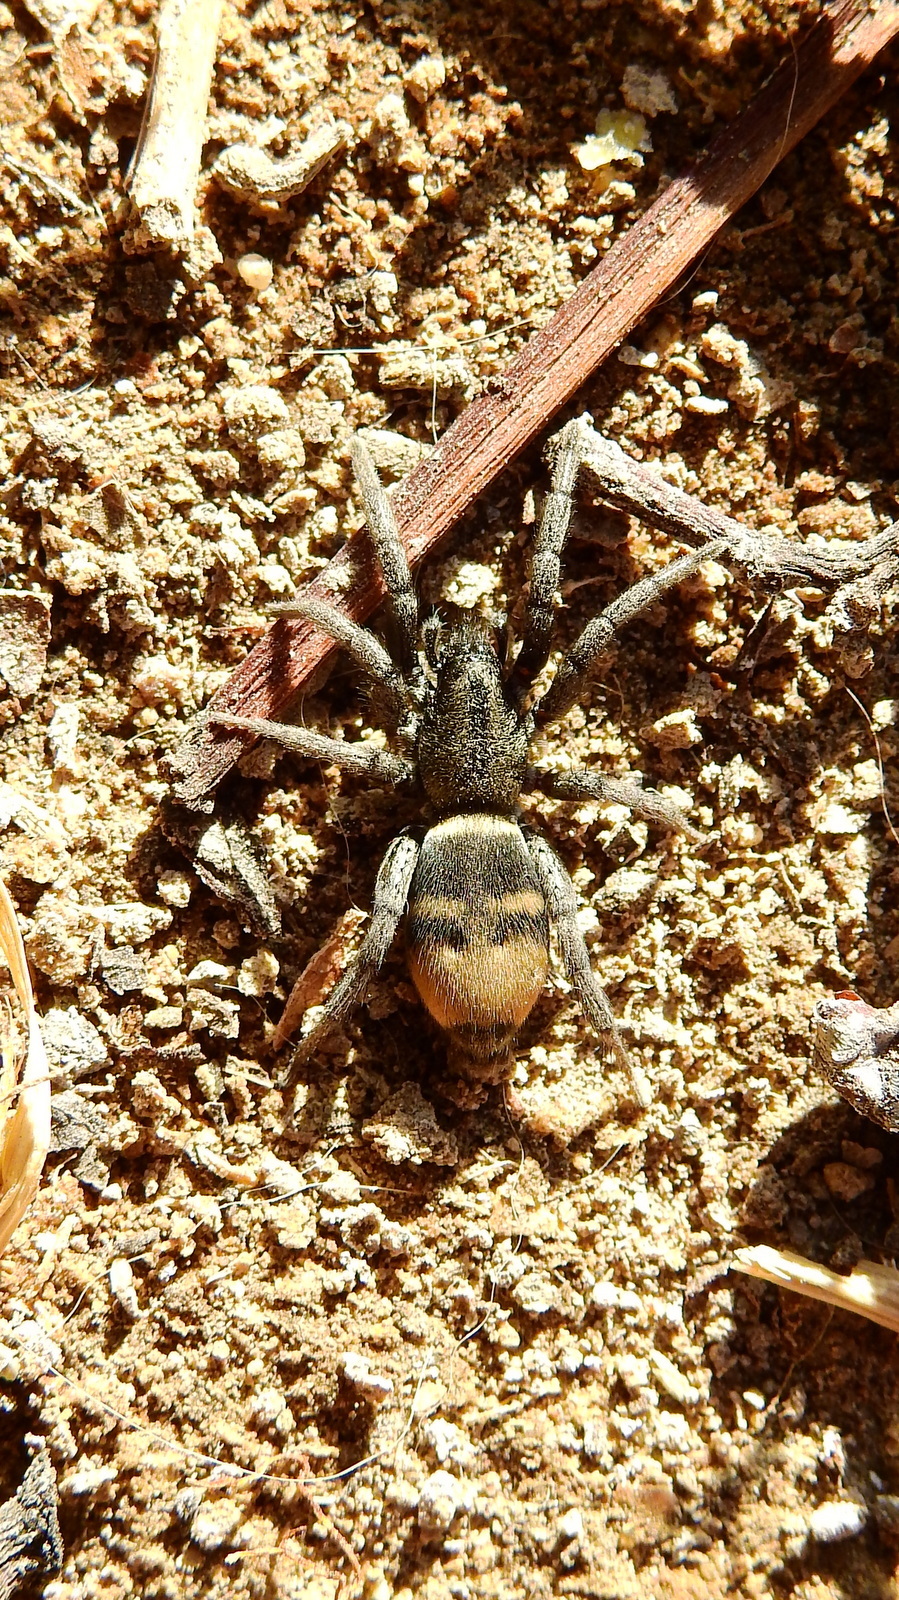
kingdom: Animalia
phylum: Arthropoda
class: Arachnida
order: Araneae
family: Gnaphosidae
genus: Latonigena
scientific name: Latonigena auricomis
